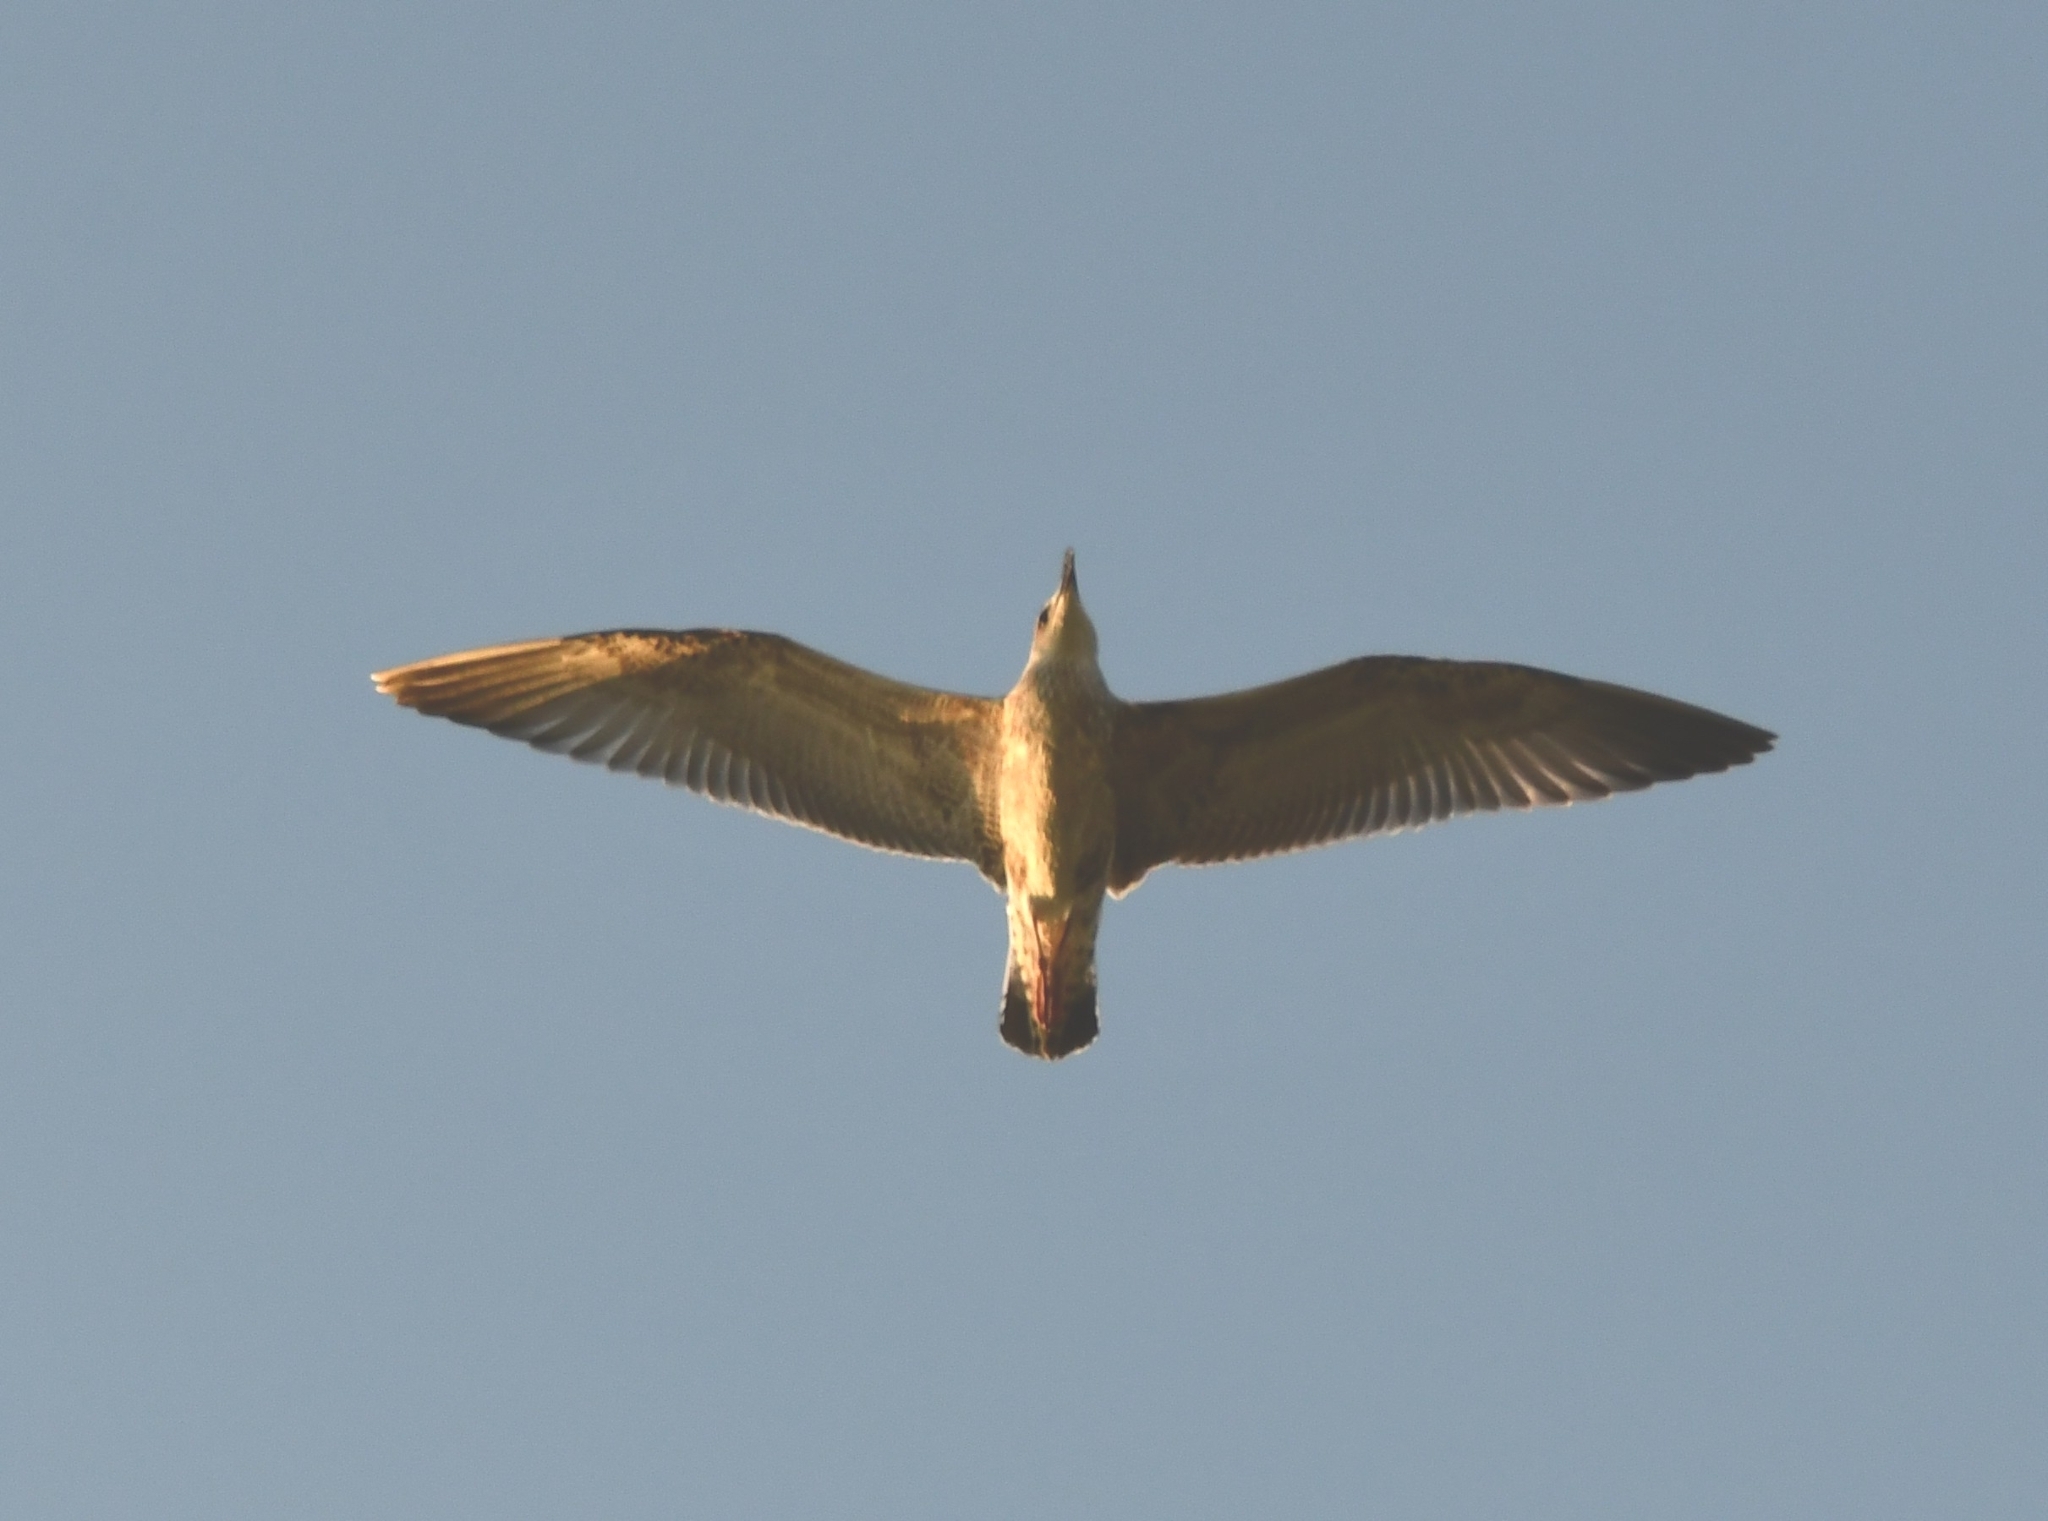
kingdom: Animalia
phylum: Chordata
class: Aves
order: Charadriiformes
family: Laridae
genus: Larus
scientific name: Larus fuscus
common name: Lesser black-backed gull
